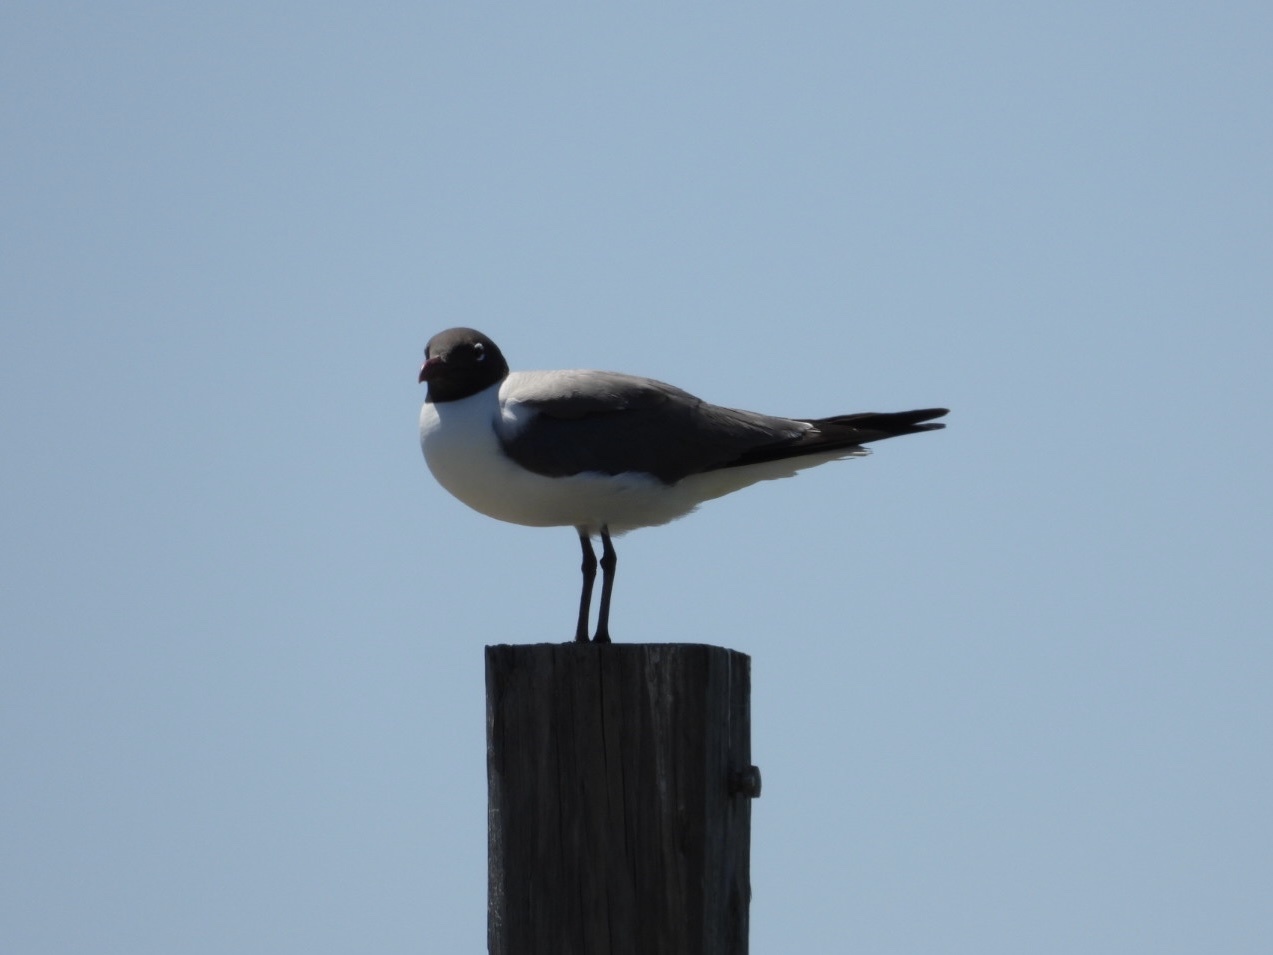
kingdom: Animalia
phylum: Chordata
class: Aves
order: Charadriiformes
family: Laridae
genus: Leucophaeus
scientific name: Leucophaeus atricilla
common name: Laughing gull
